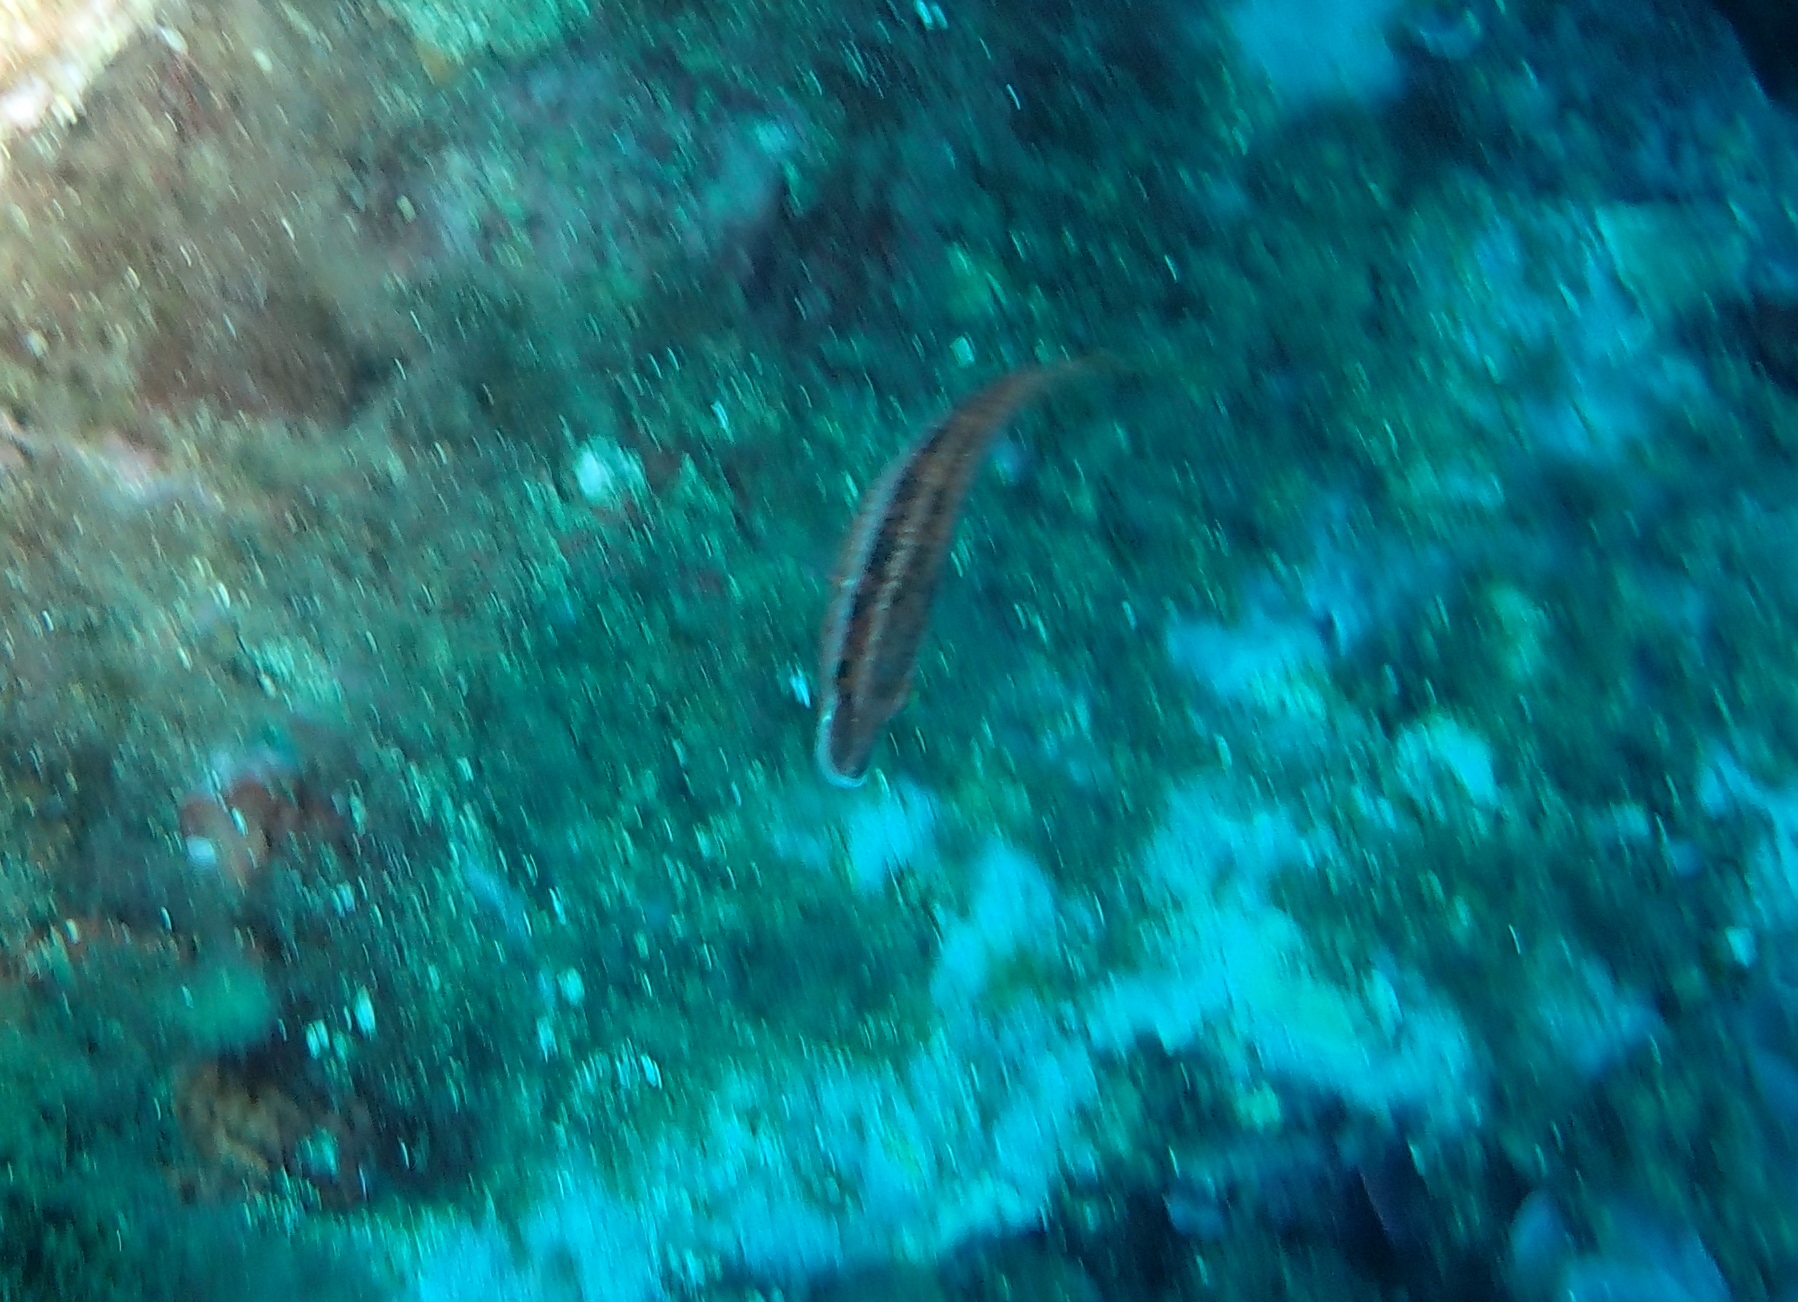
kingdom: Animalia
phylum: Chordata
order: Perciformes
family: Labridae
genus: Symphodus
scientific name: Symphodus doderleini
